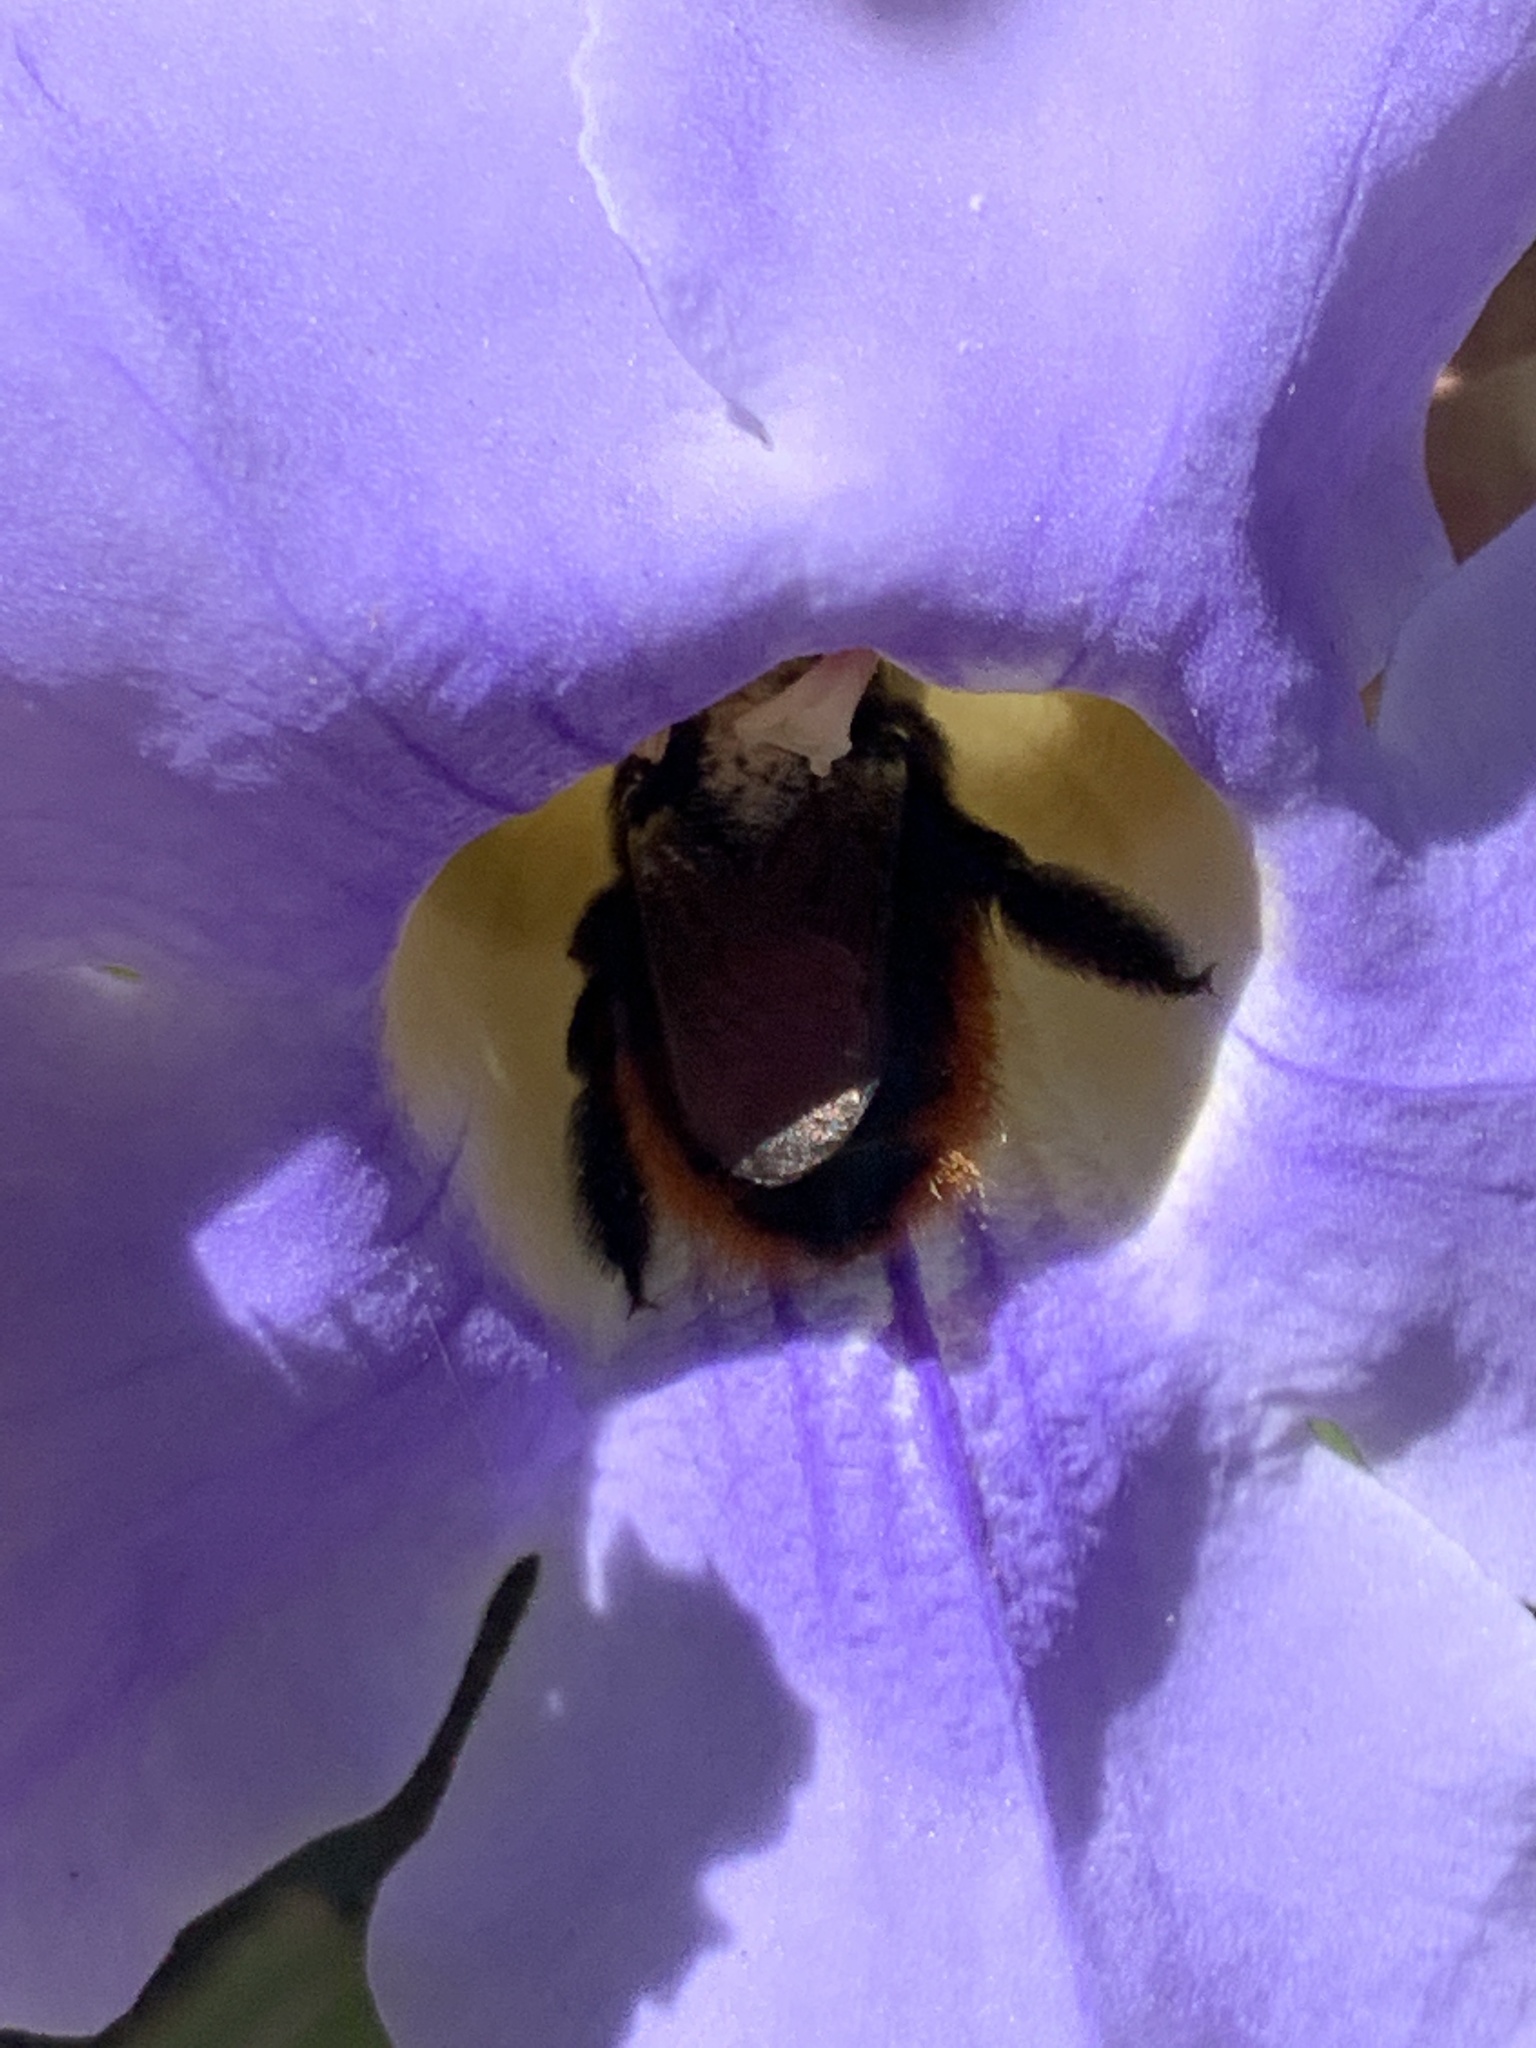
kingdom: Animalia
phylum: Arthropoda
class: Insecta
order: Hymenoptera
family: Apidae
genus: Xylocopa
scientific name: Xylocopa augusti
